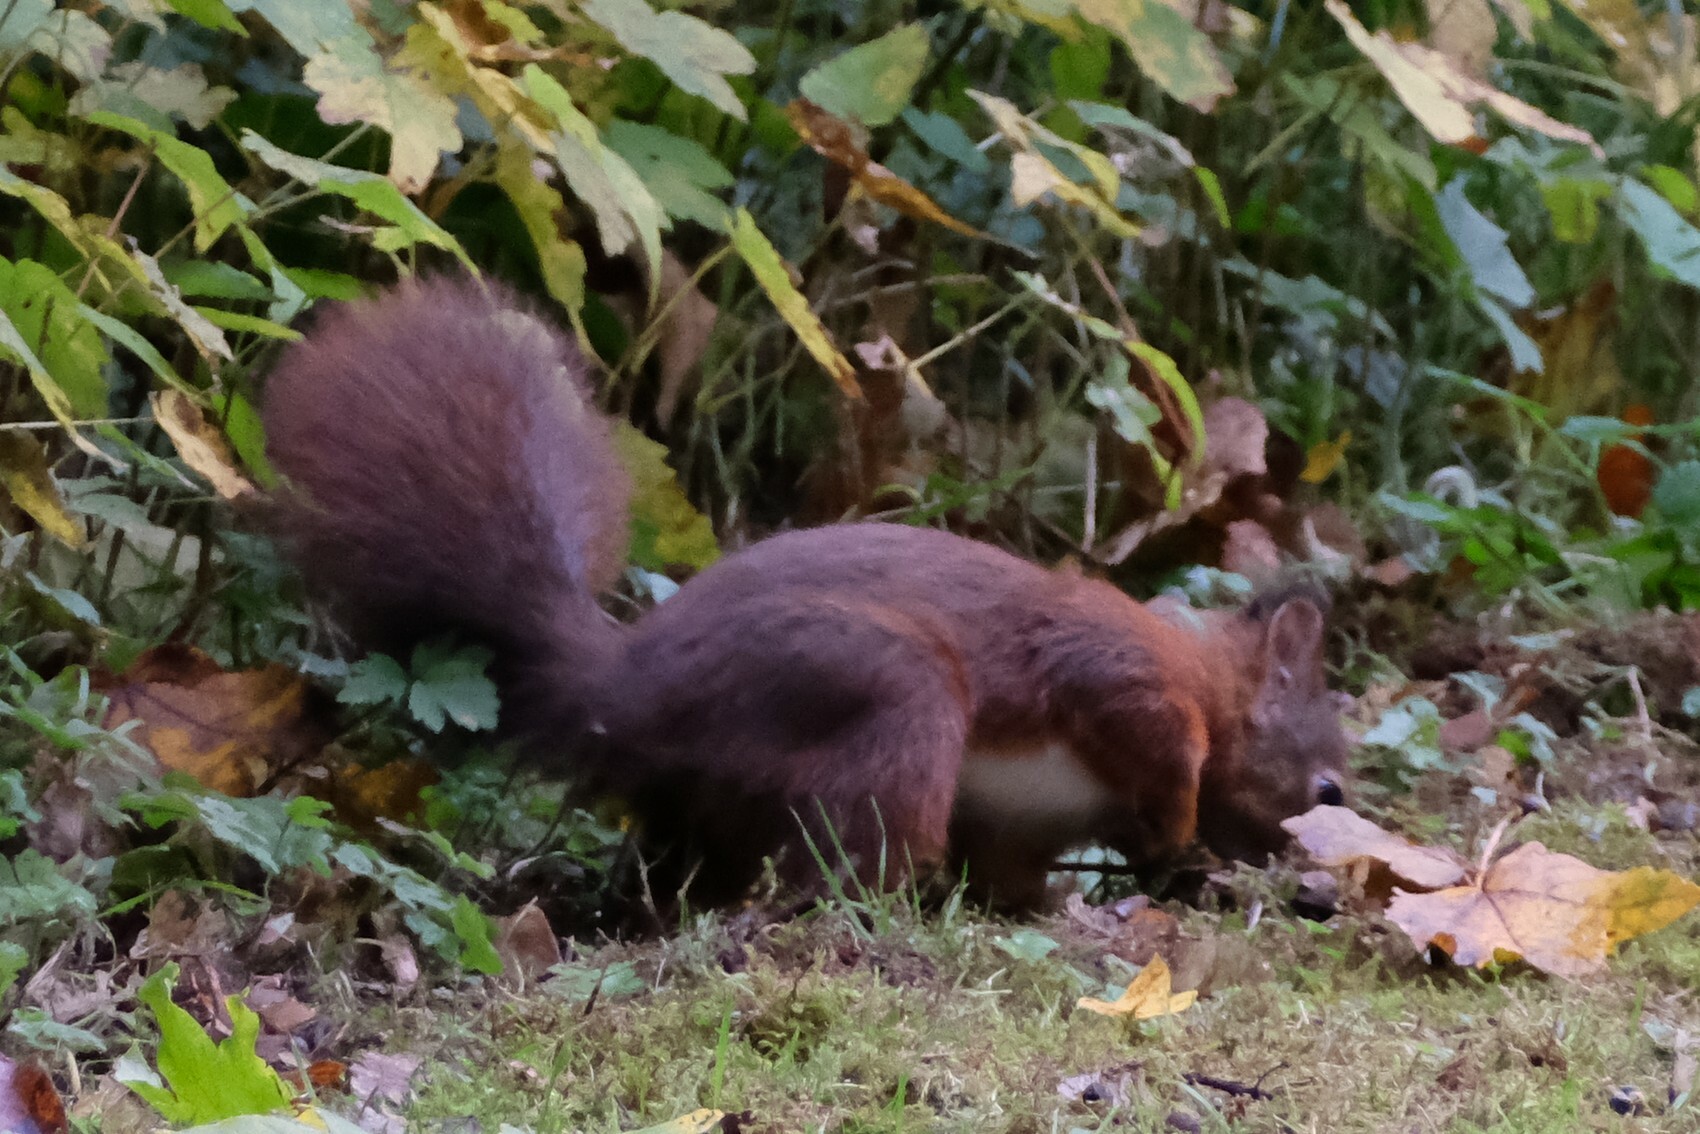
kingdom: Animalia
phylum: Chordata
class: Mammalia
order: Rodentia
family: Sciuridae
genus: Sciurus
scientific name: Sciurus vulgaris
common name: Eurasian red squirrel
